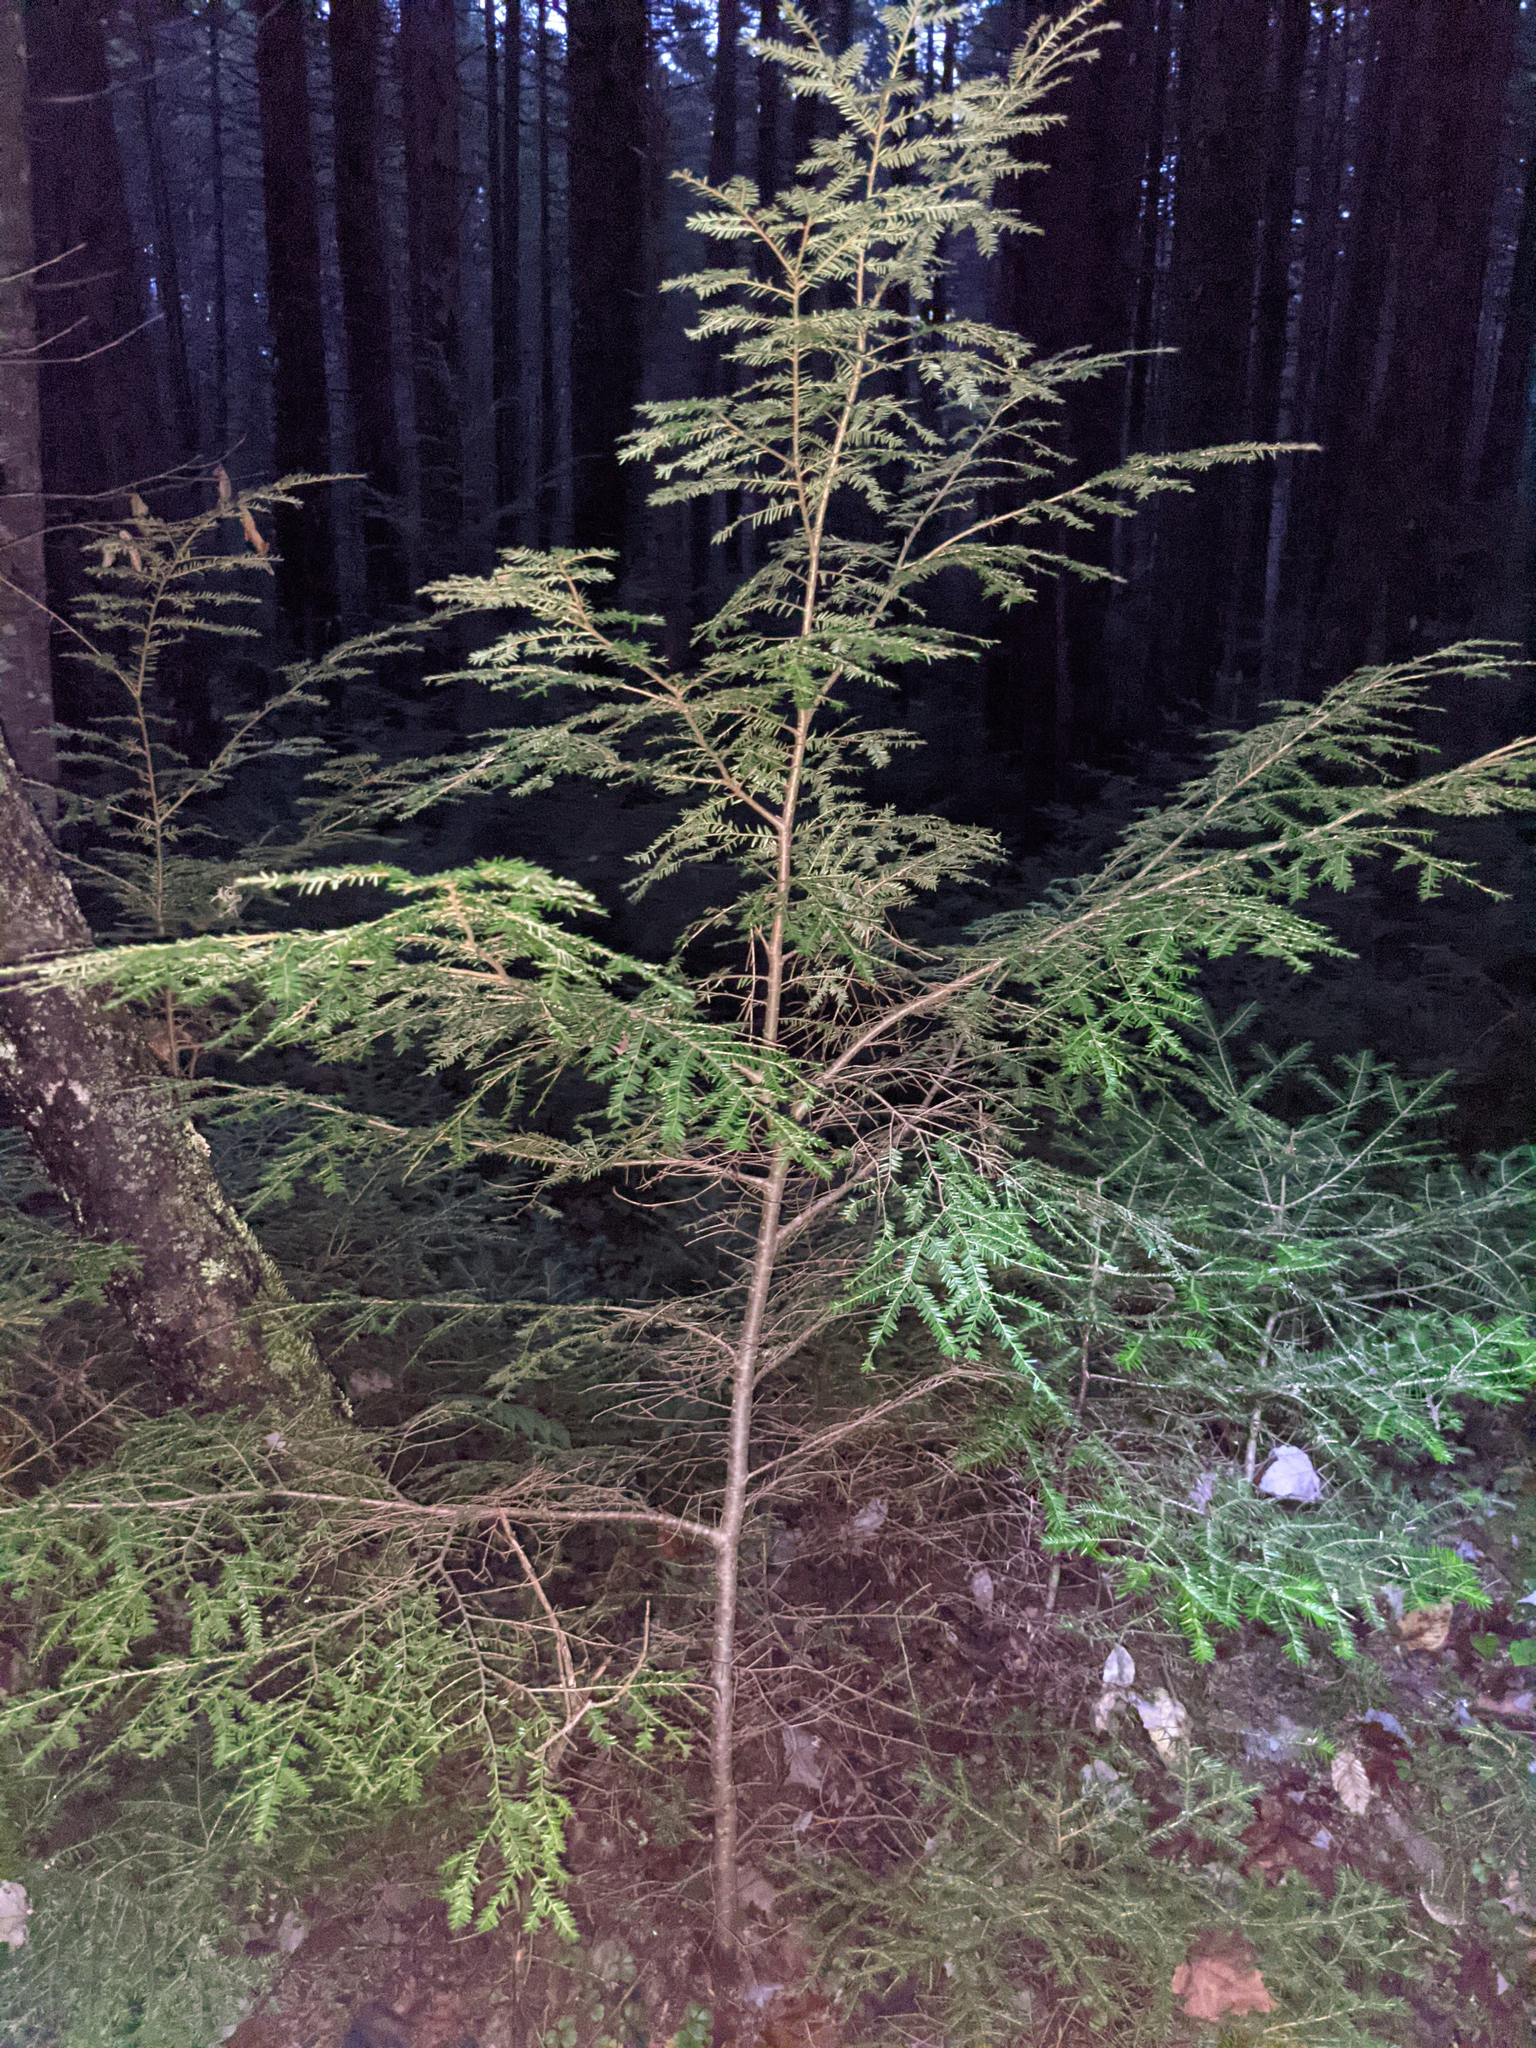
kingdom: Plantae
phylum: Tracheophyta
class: Pinopsida
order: Pinales
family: Pinaceae
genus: Tsuga
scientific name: Tsuga canadensis
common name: Eastern hemlock
